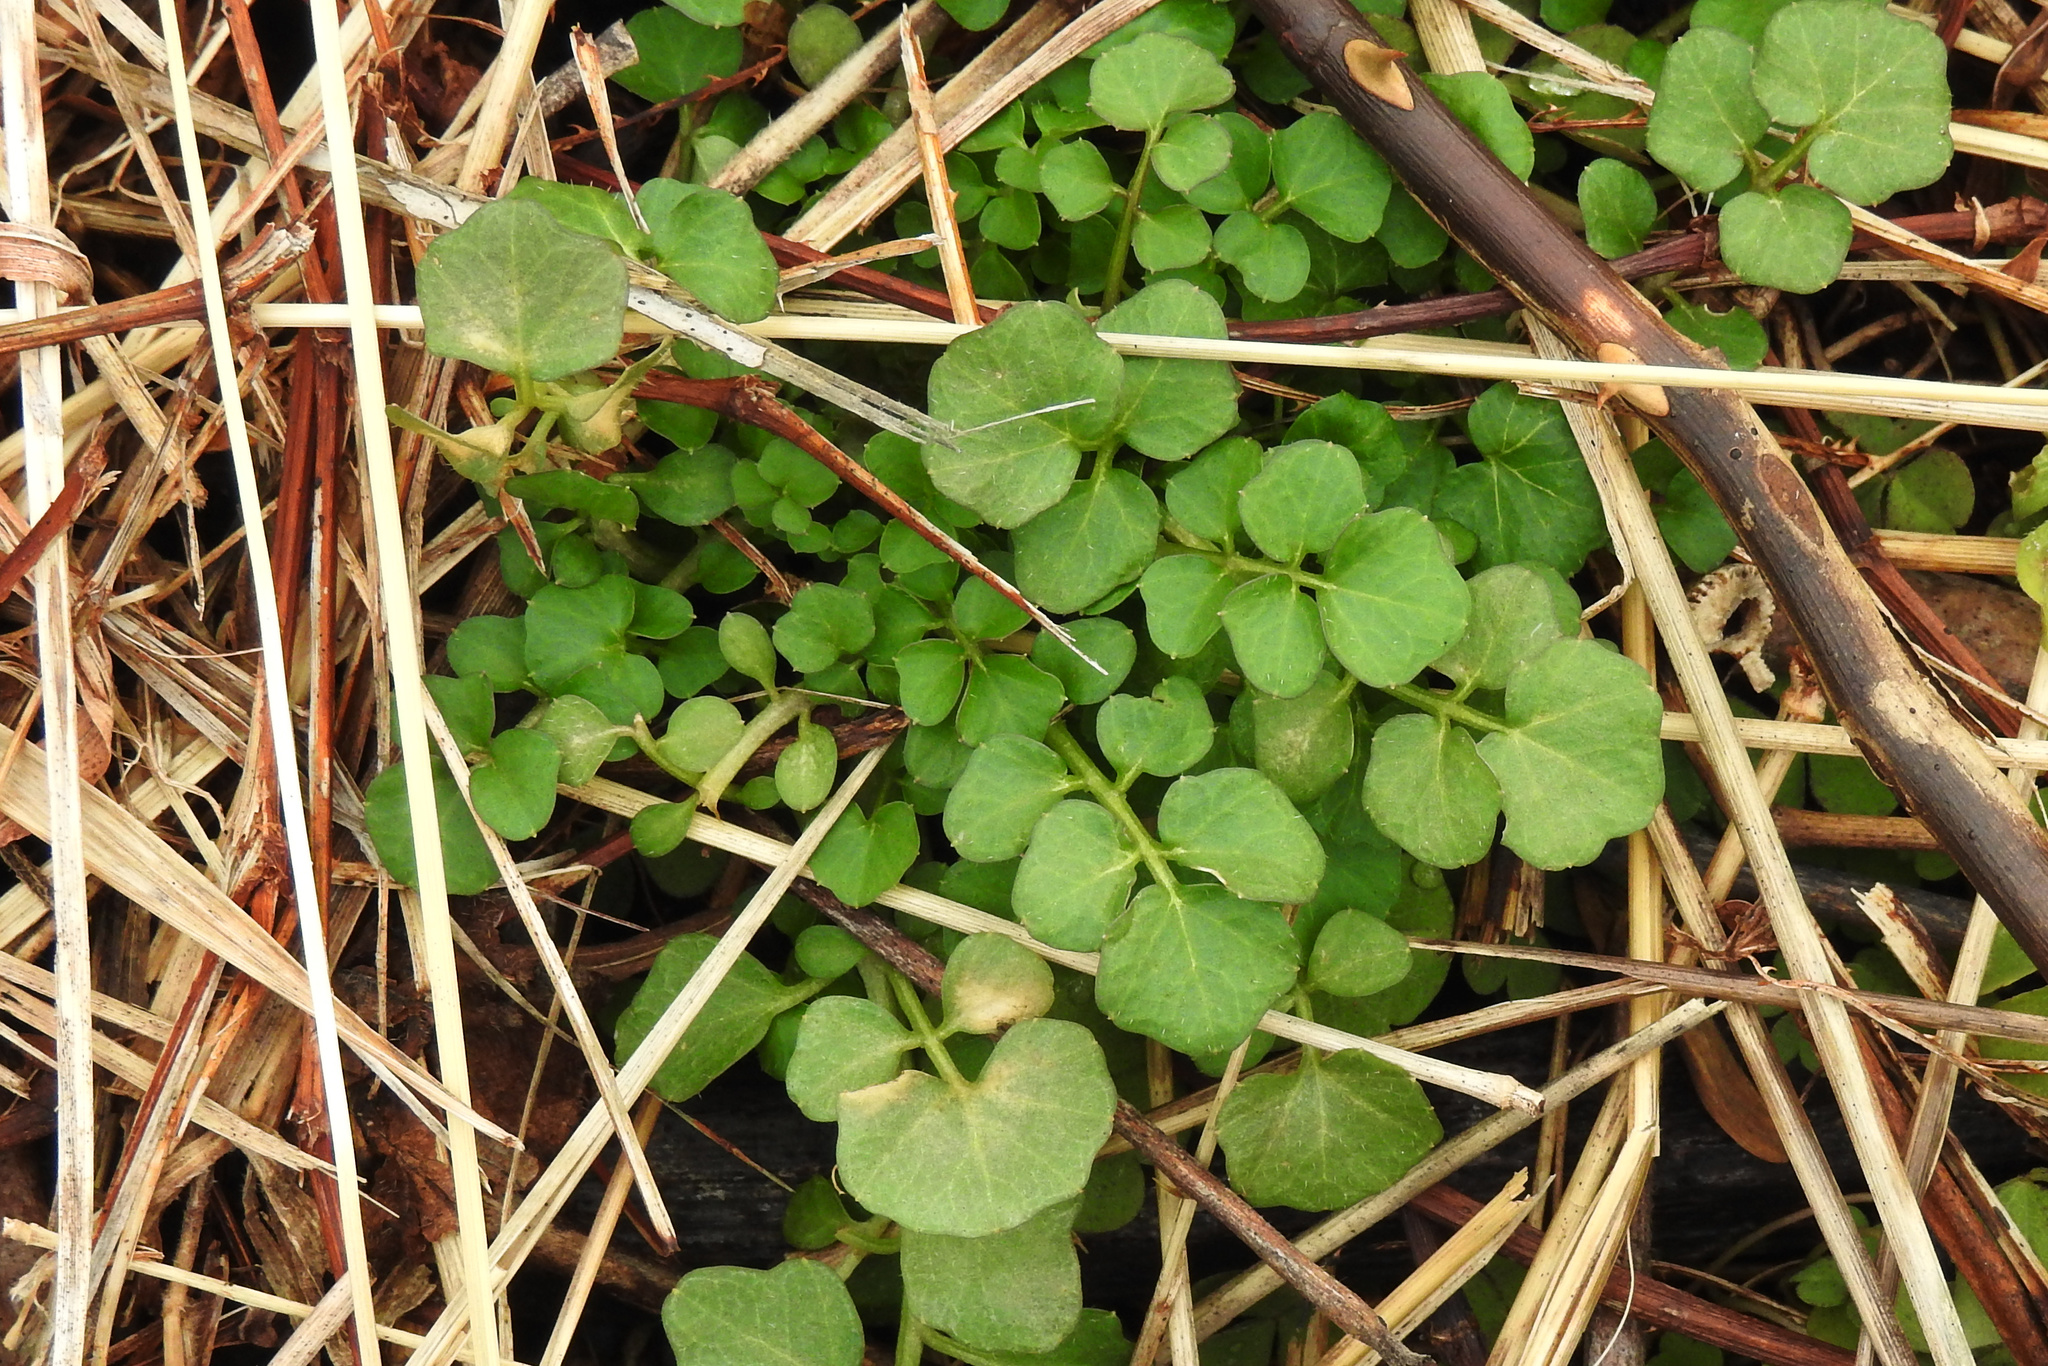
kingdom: Plantae
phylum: Tracheophyta
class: Magnoliopsida
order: Brassicales
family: Brassicaceae
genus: Cardamine
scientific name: Cardamine hirsuta
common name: Hairy bittercress
